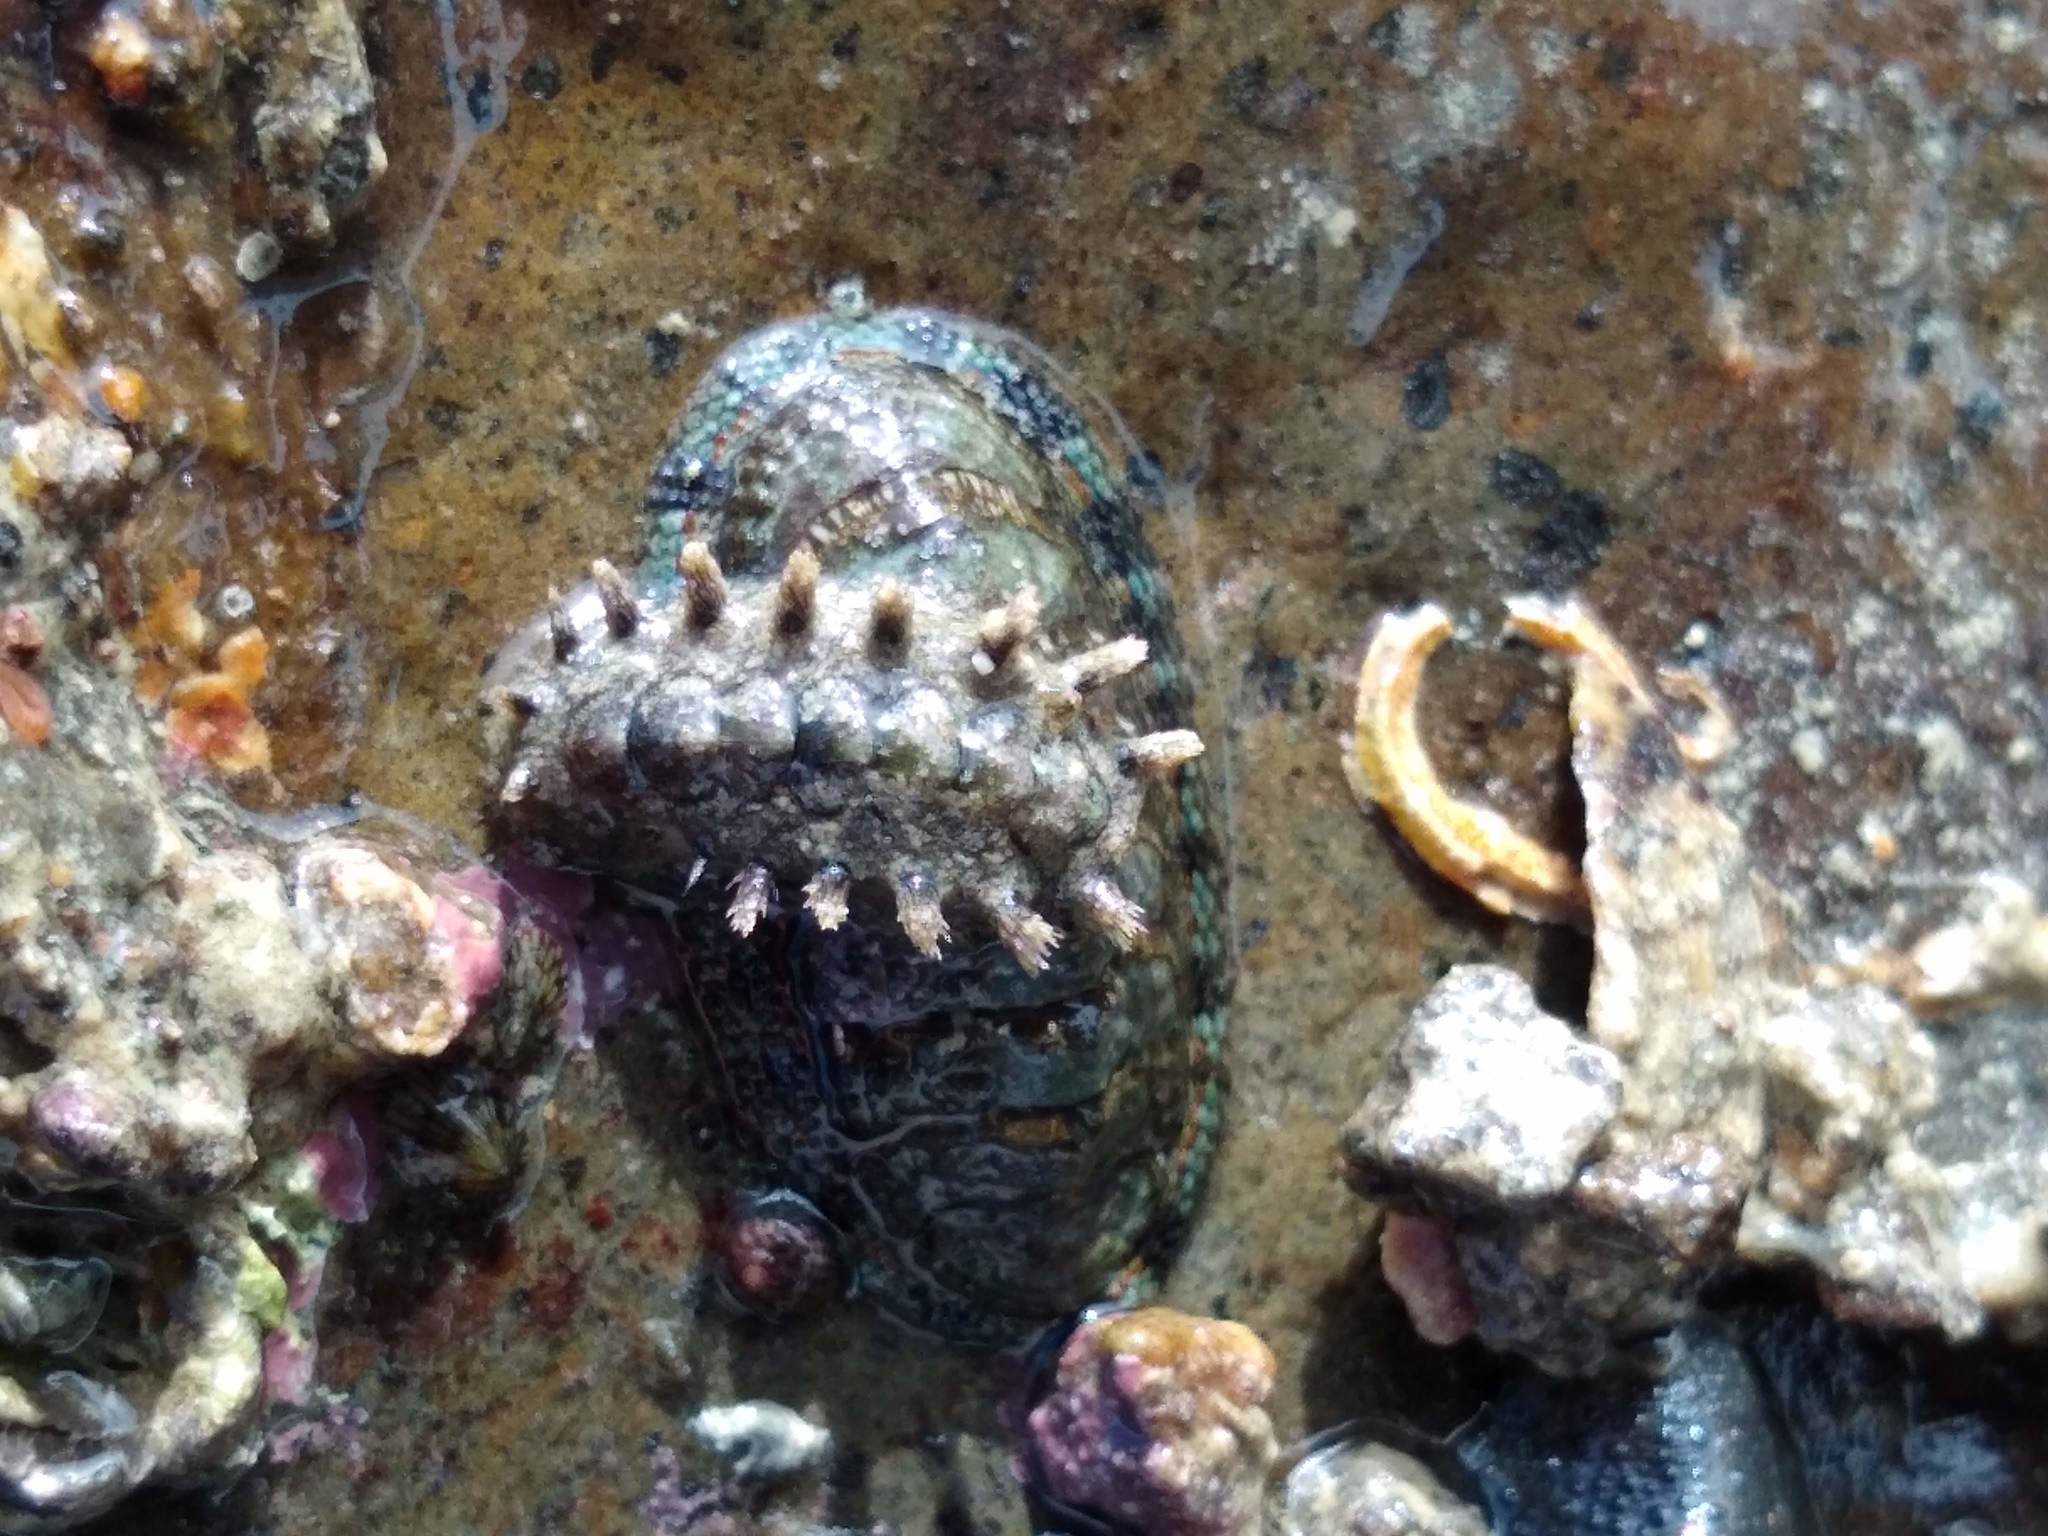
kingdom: Animalia
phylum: Mollusca
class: Polyplacophora
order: Chitonida
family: Chitonidae
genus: Sypharochiton
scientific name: Sypharochiton sinclairi
